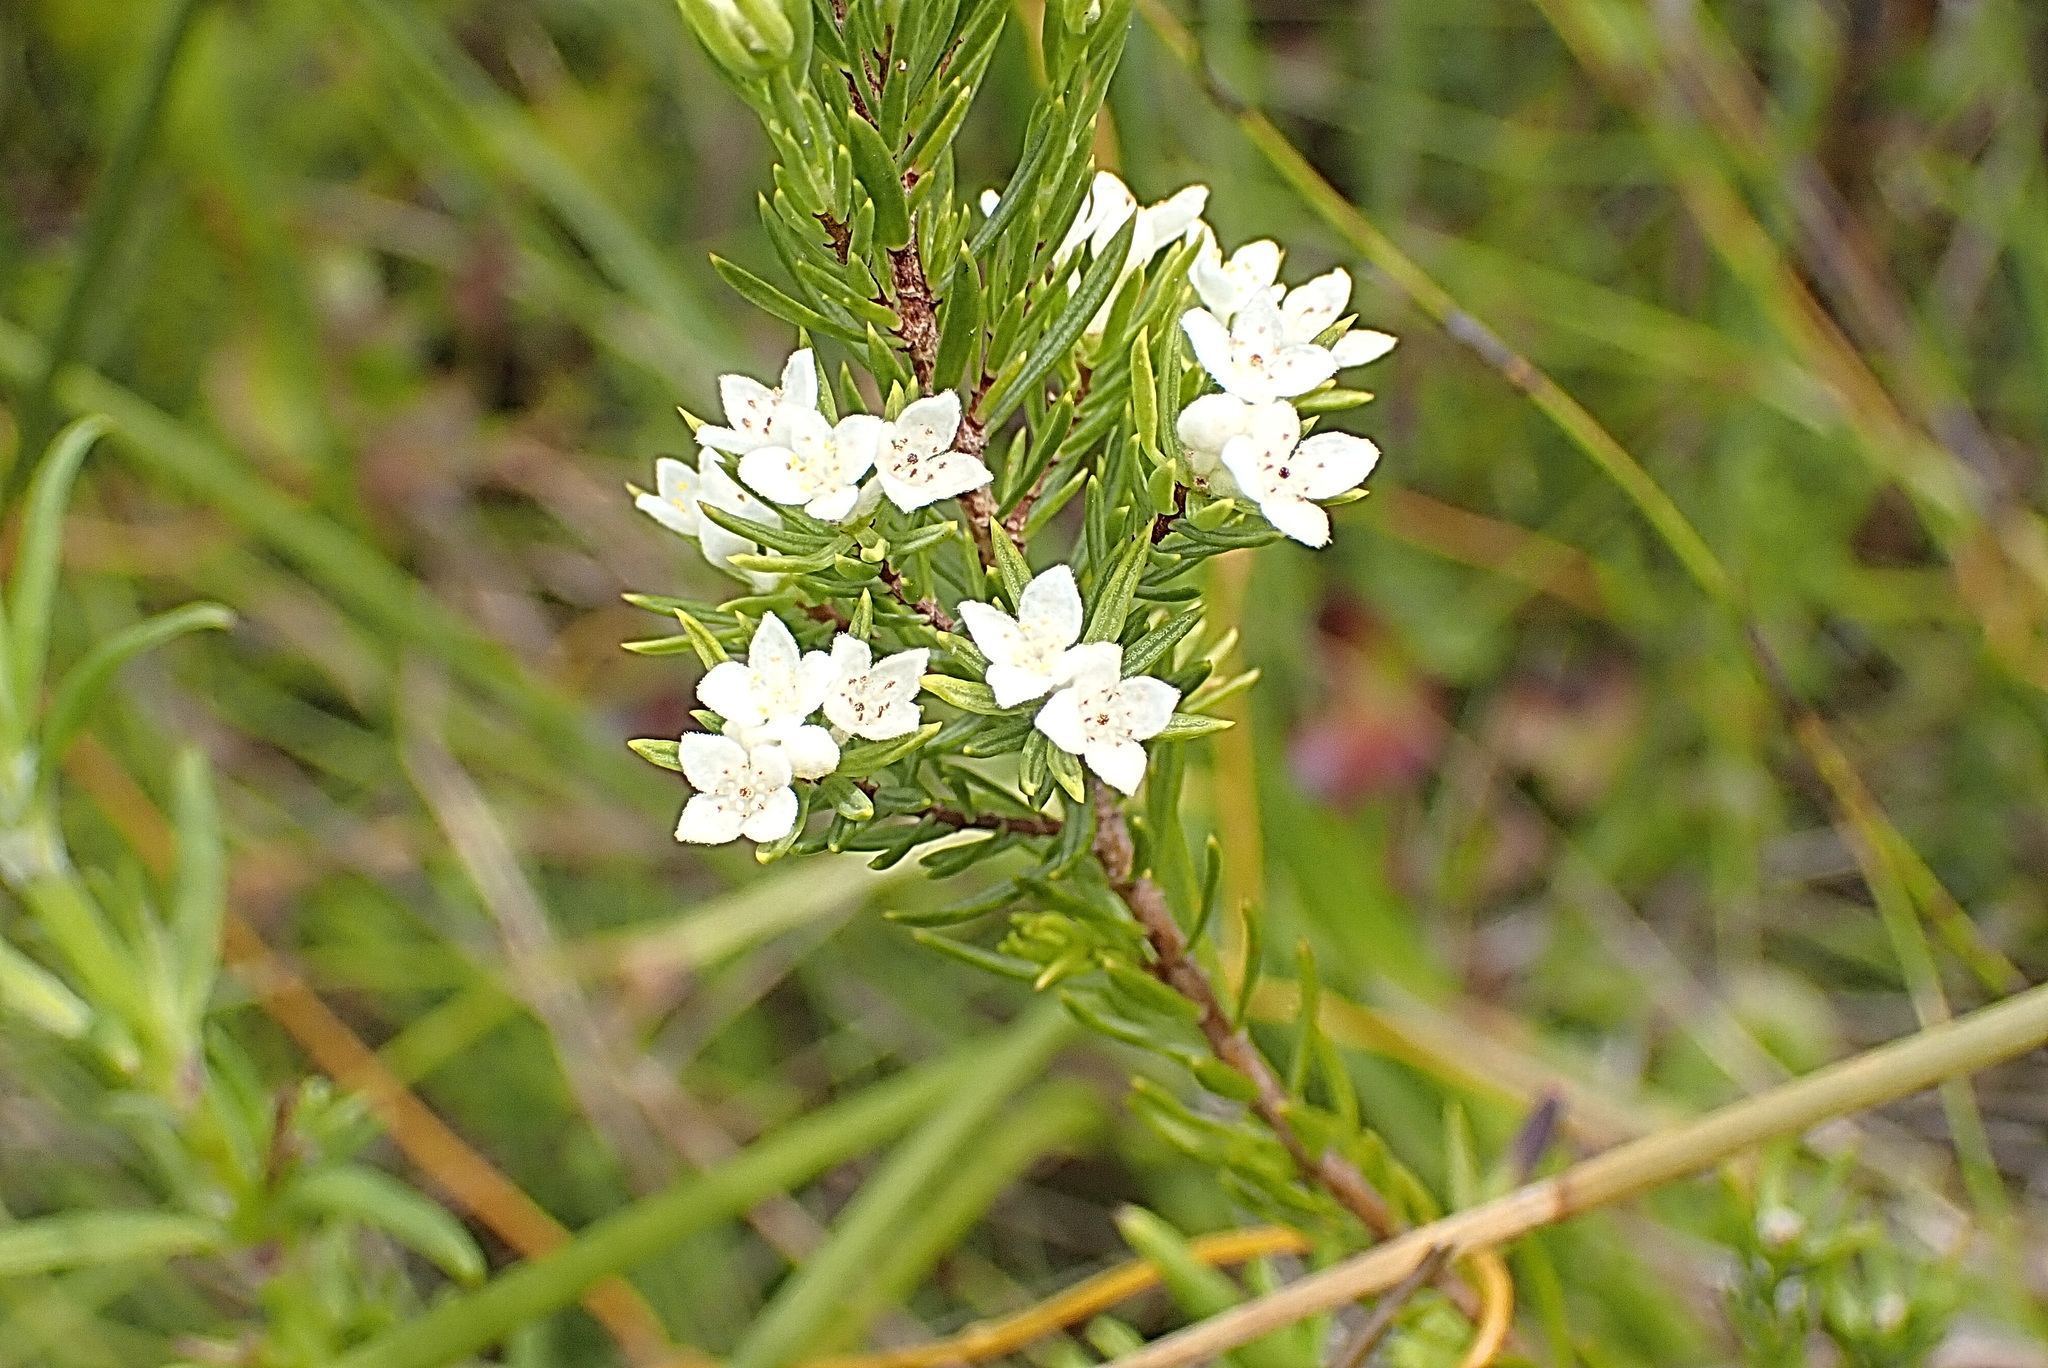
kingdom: Plantae
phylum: Tracheophyta
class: Magnoliopsida
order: Malvales
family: Thymelaeaceae
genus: Lachnaea
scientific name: Lachnaea diosmoides
